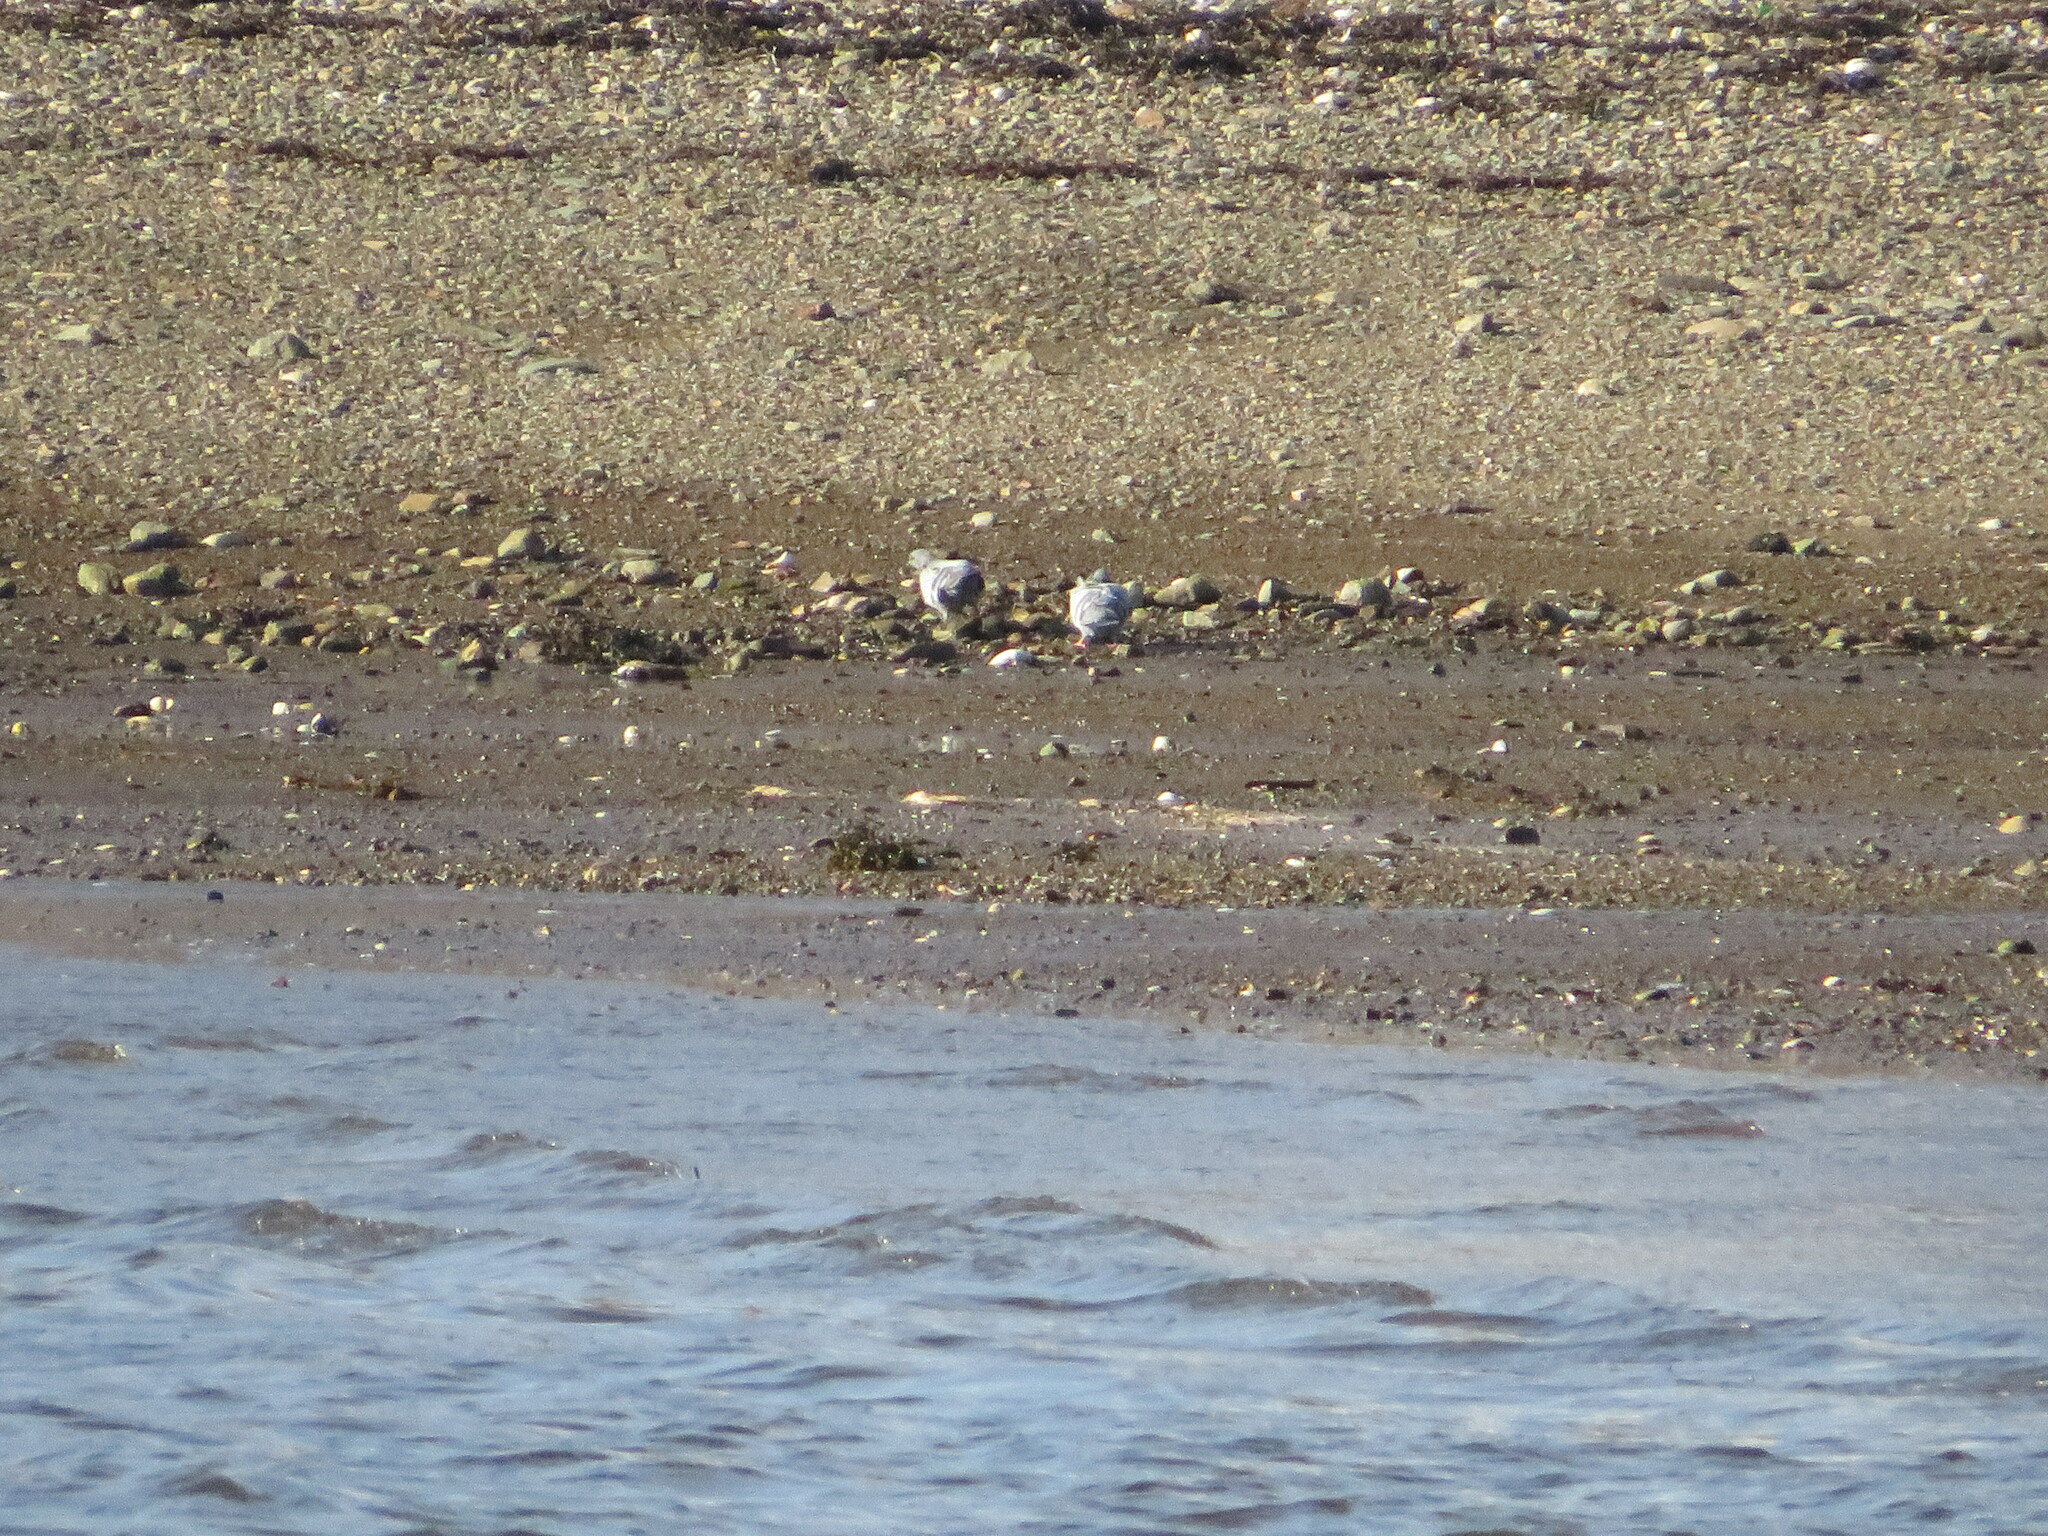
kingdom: Animalia
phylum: Chordata
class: Aves
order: Columbiformes
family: Columbidae
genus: Columba
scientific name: Columba livia
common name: Rock pigeon
